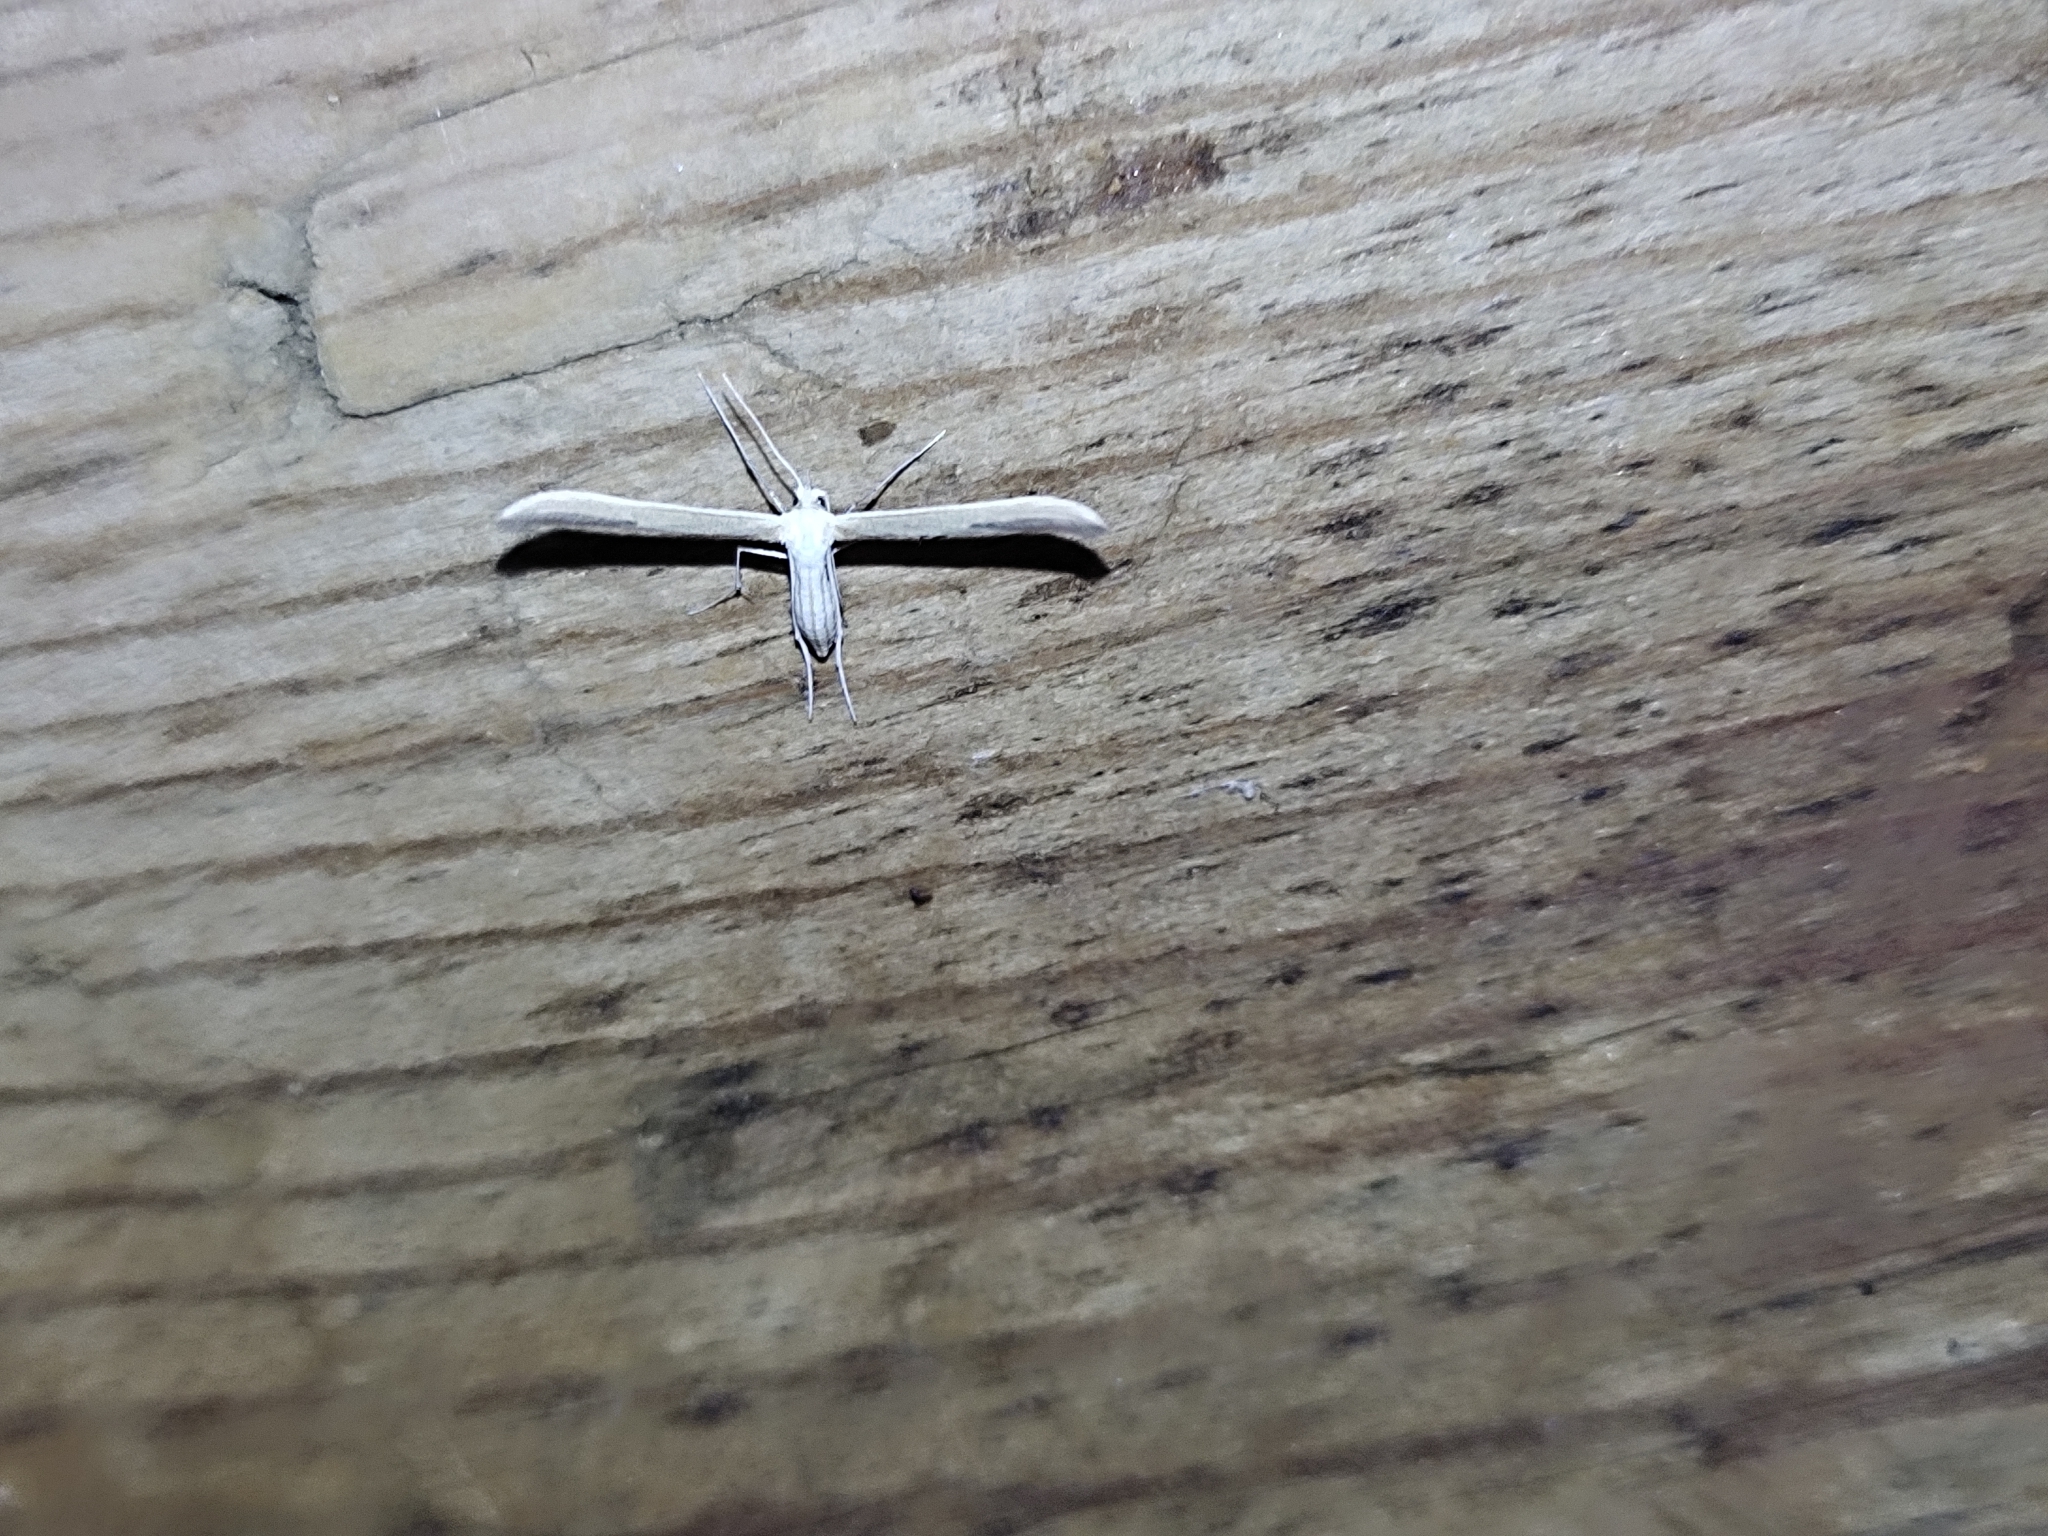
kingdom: Animalia
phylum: Arthropoda
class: Insecta
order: Lepidoptera
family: Pterophoridae
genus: Hellinsia
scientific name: Hellinsia didactylites
